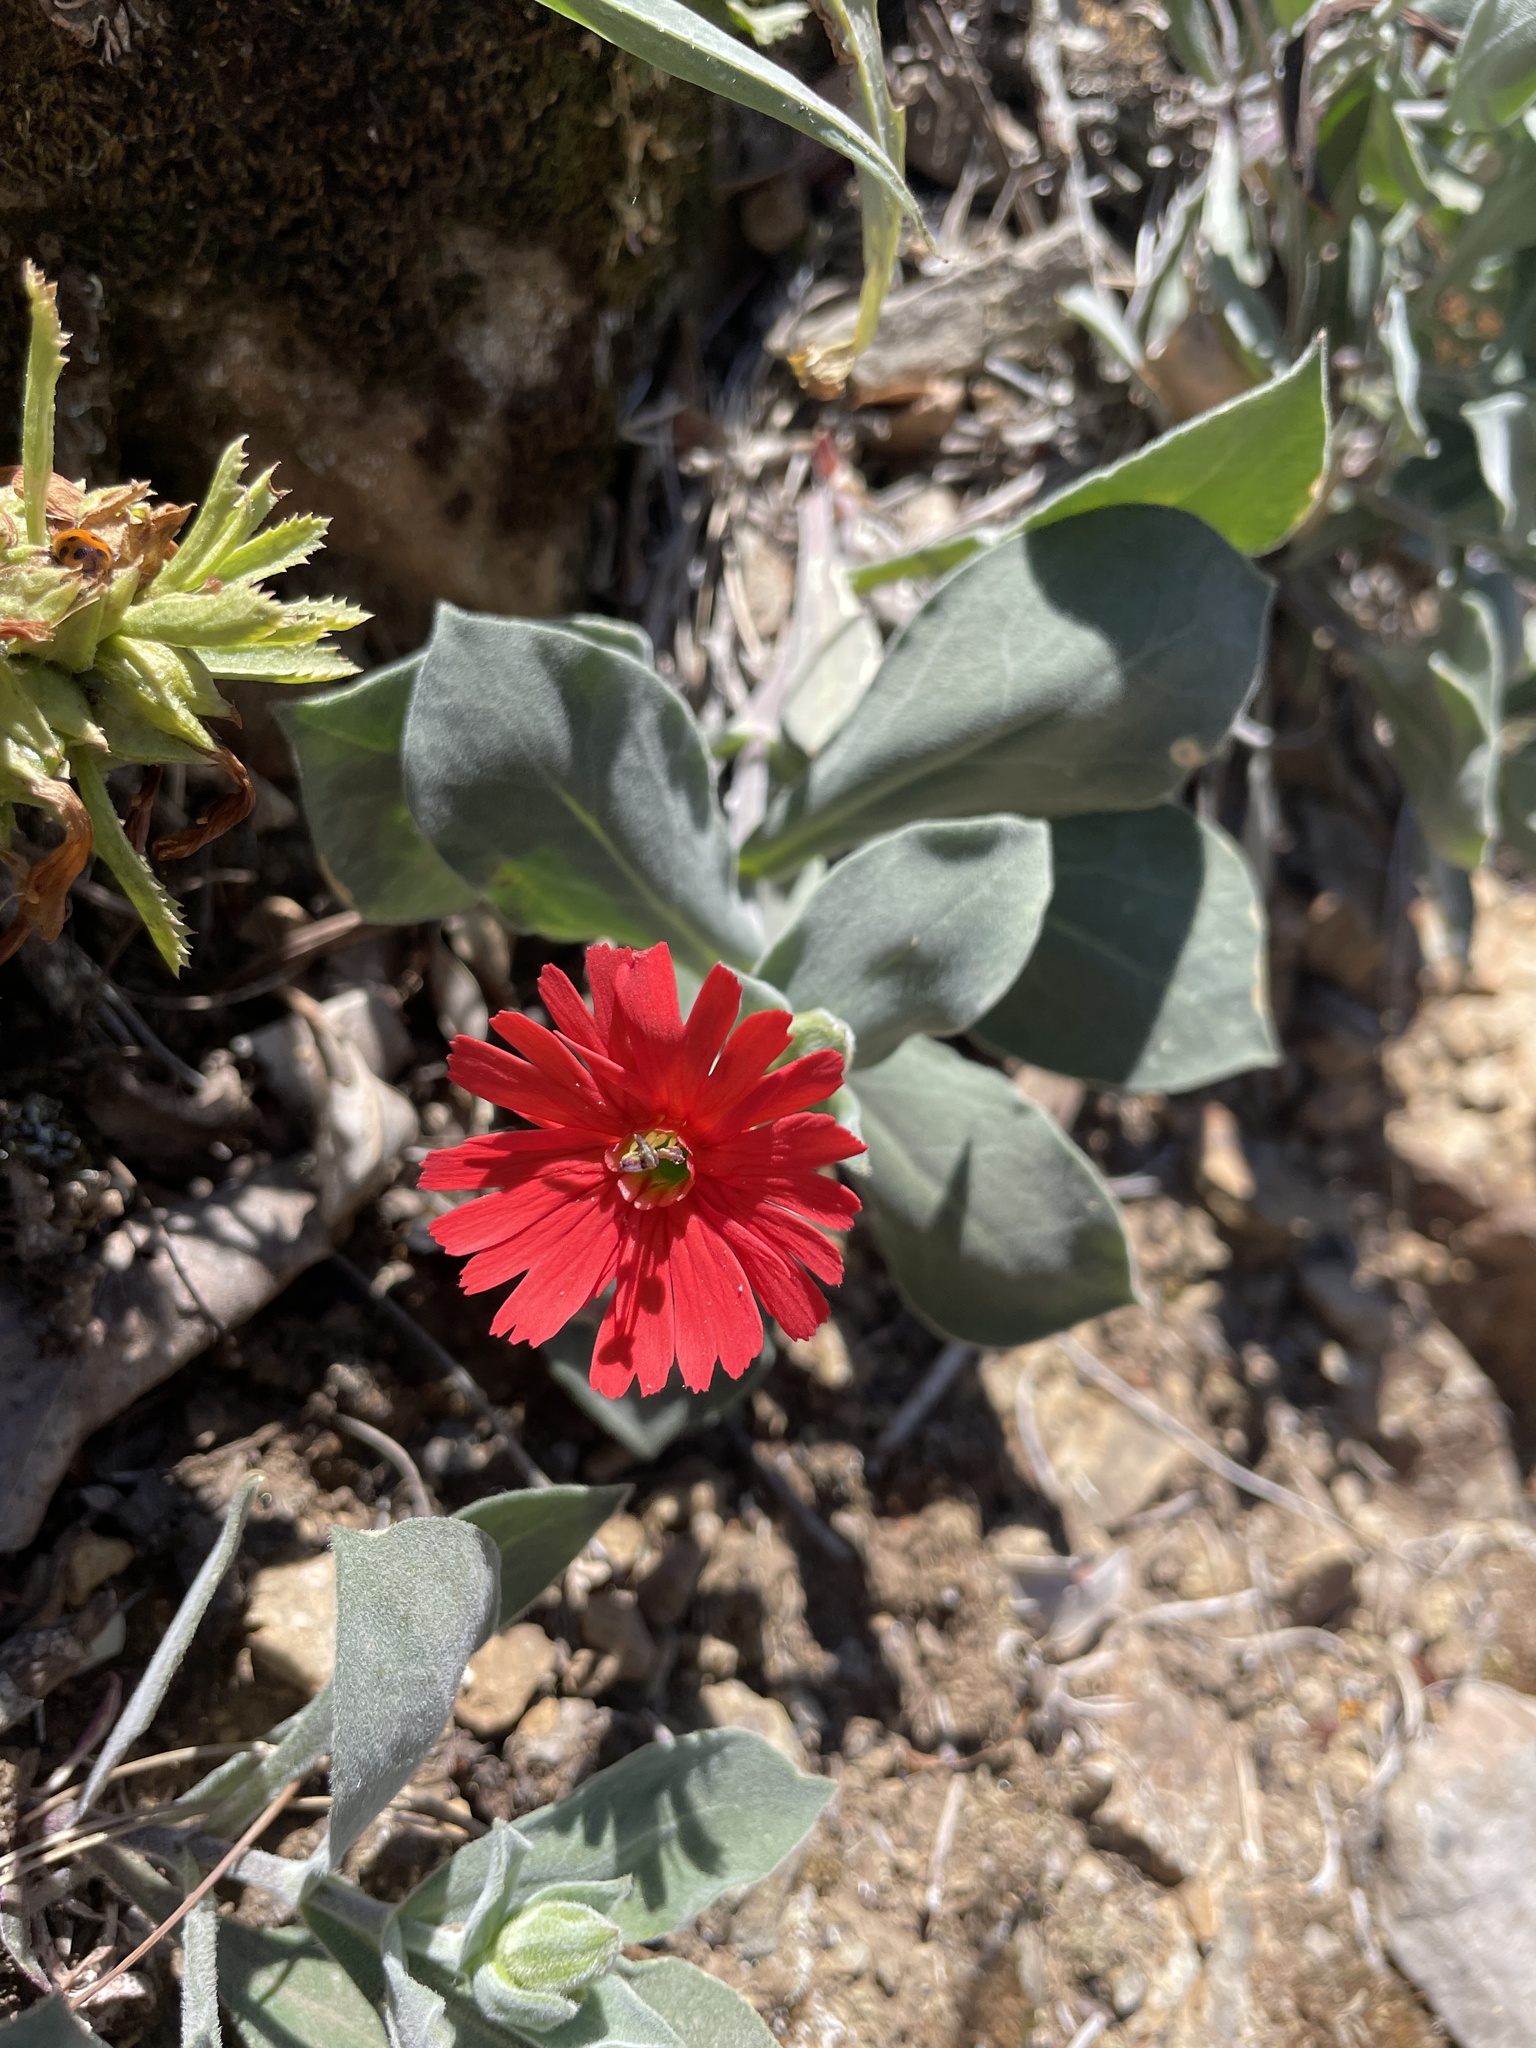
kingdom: Plantae
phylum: Tracheophyta
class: Magnoliopsida
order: Caryophyllales
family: Caryophyllaceae
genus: Silene
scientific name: Silene laciniata
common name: Indian-pink
